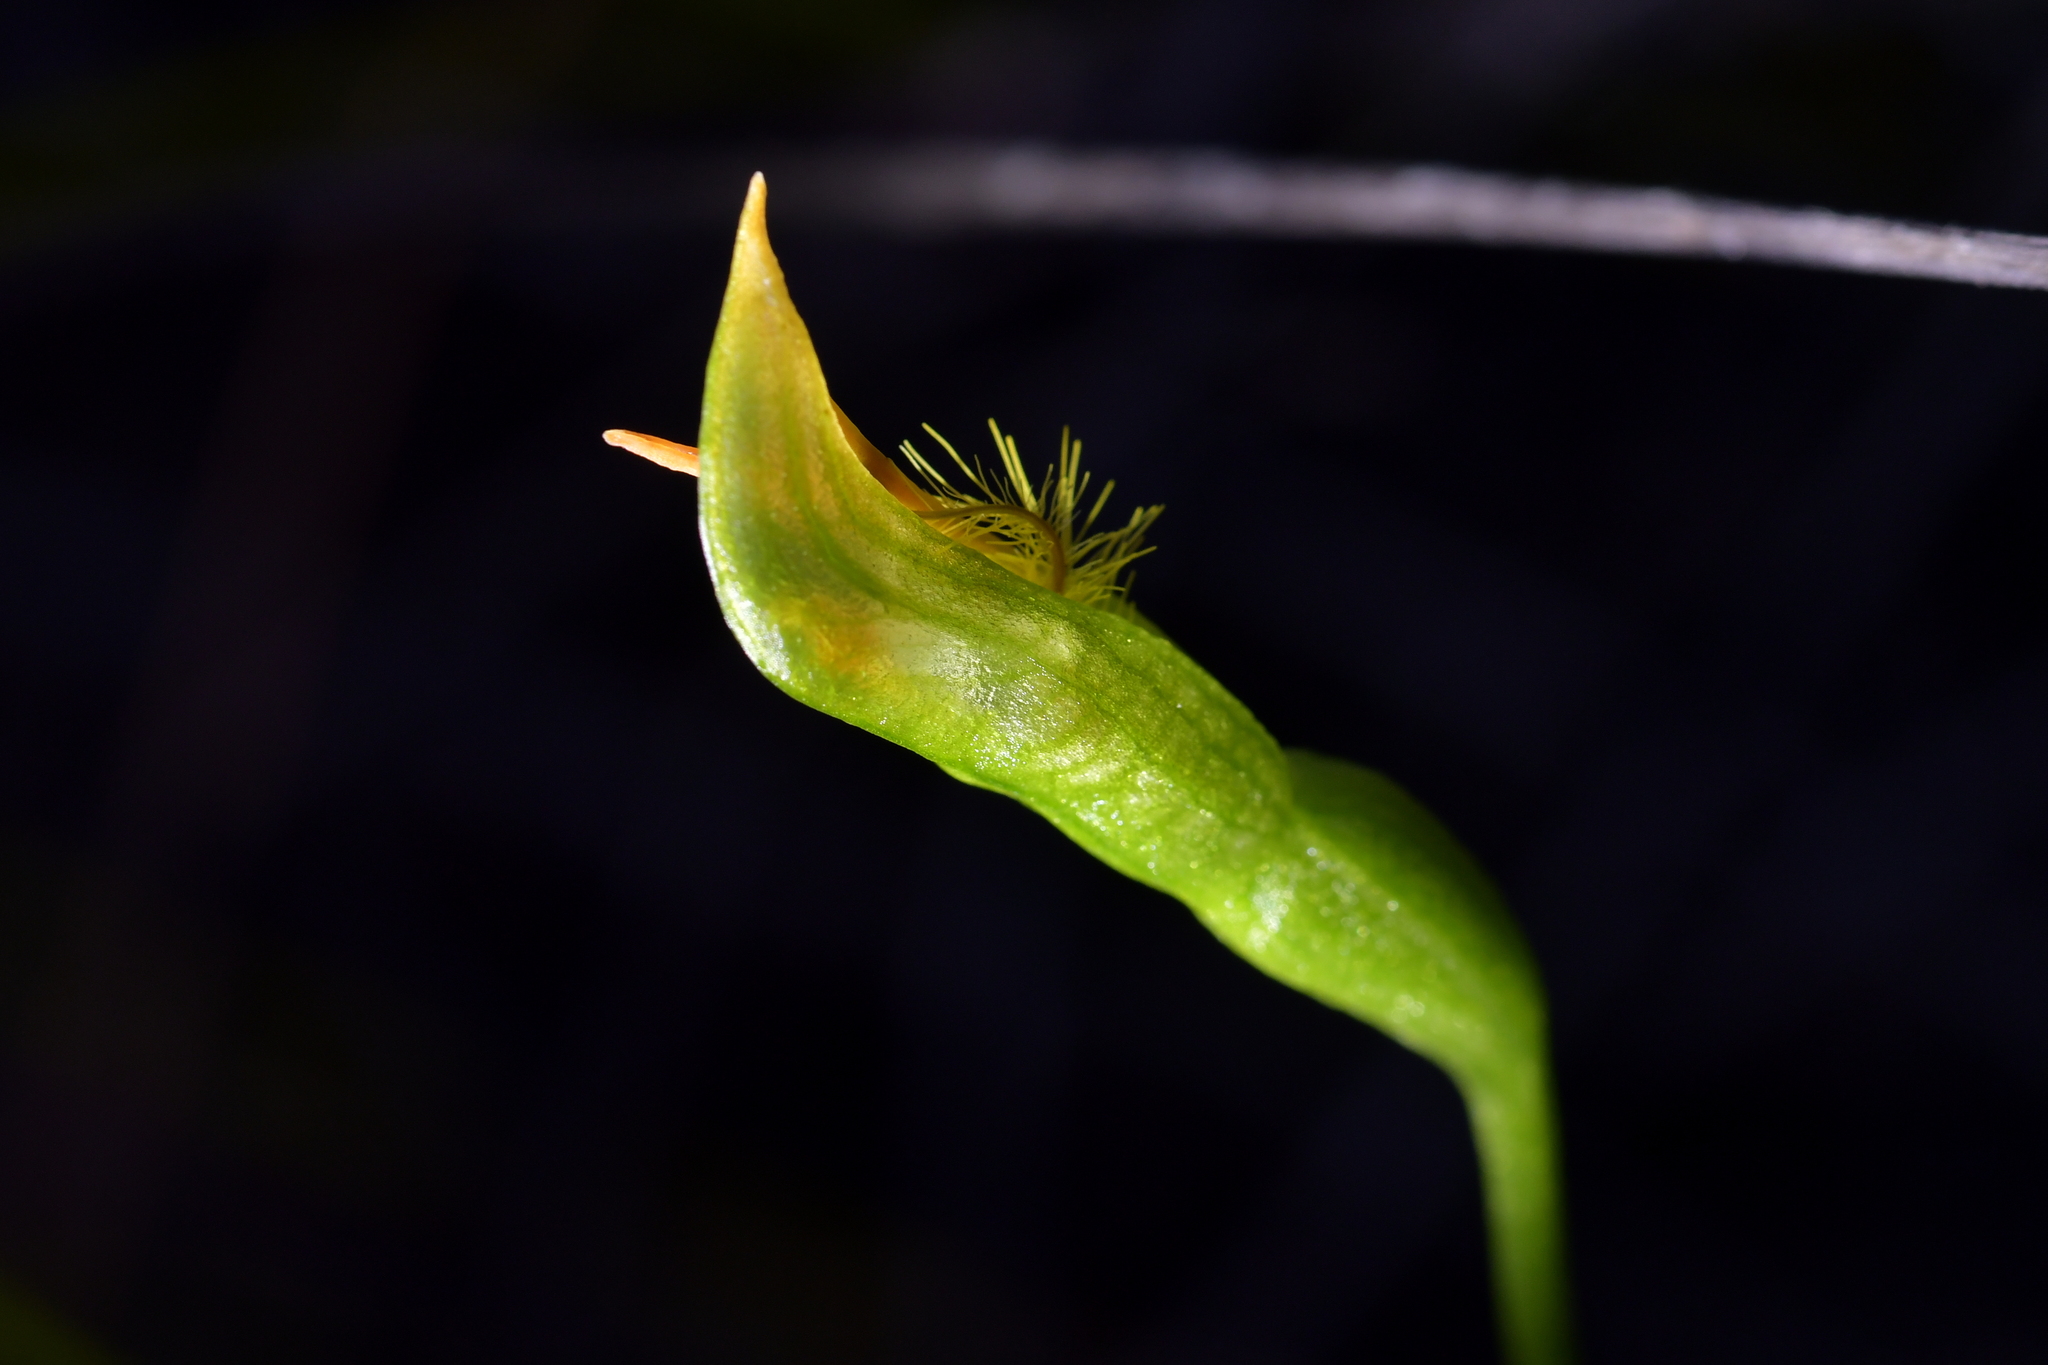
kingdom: Plantae
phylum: Tracheophyta
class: Liliopsida
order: Asparagales
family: Orchidaceae
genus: Pterostylis
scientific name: Pterostylis tasmanica
